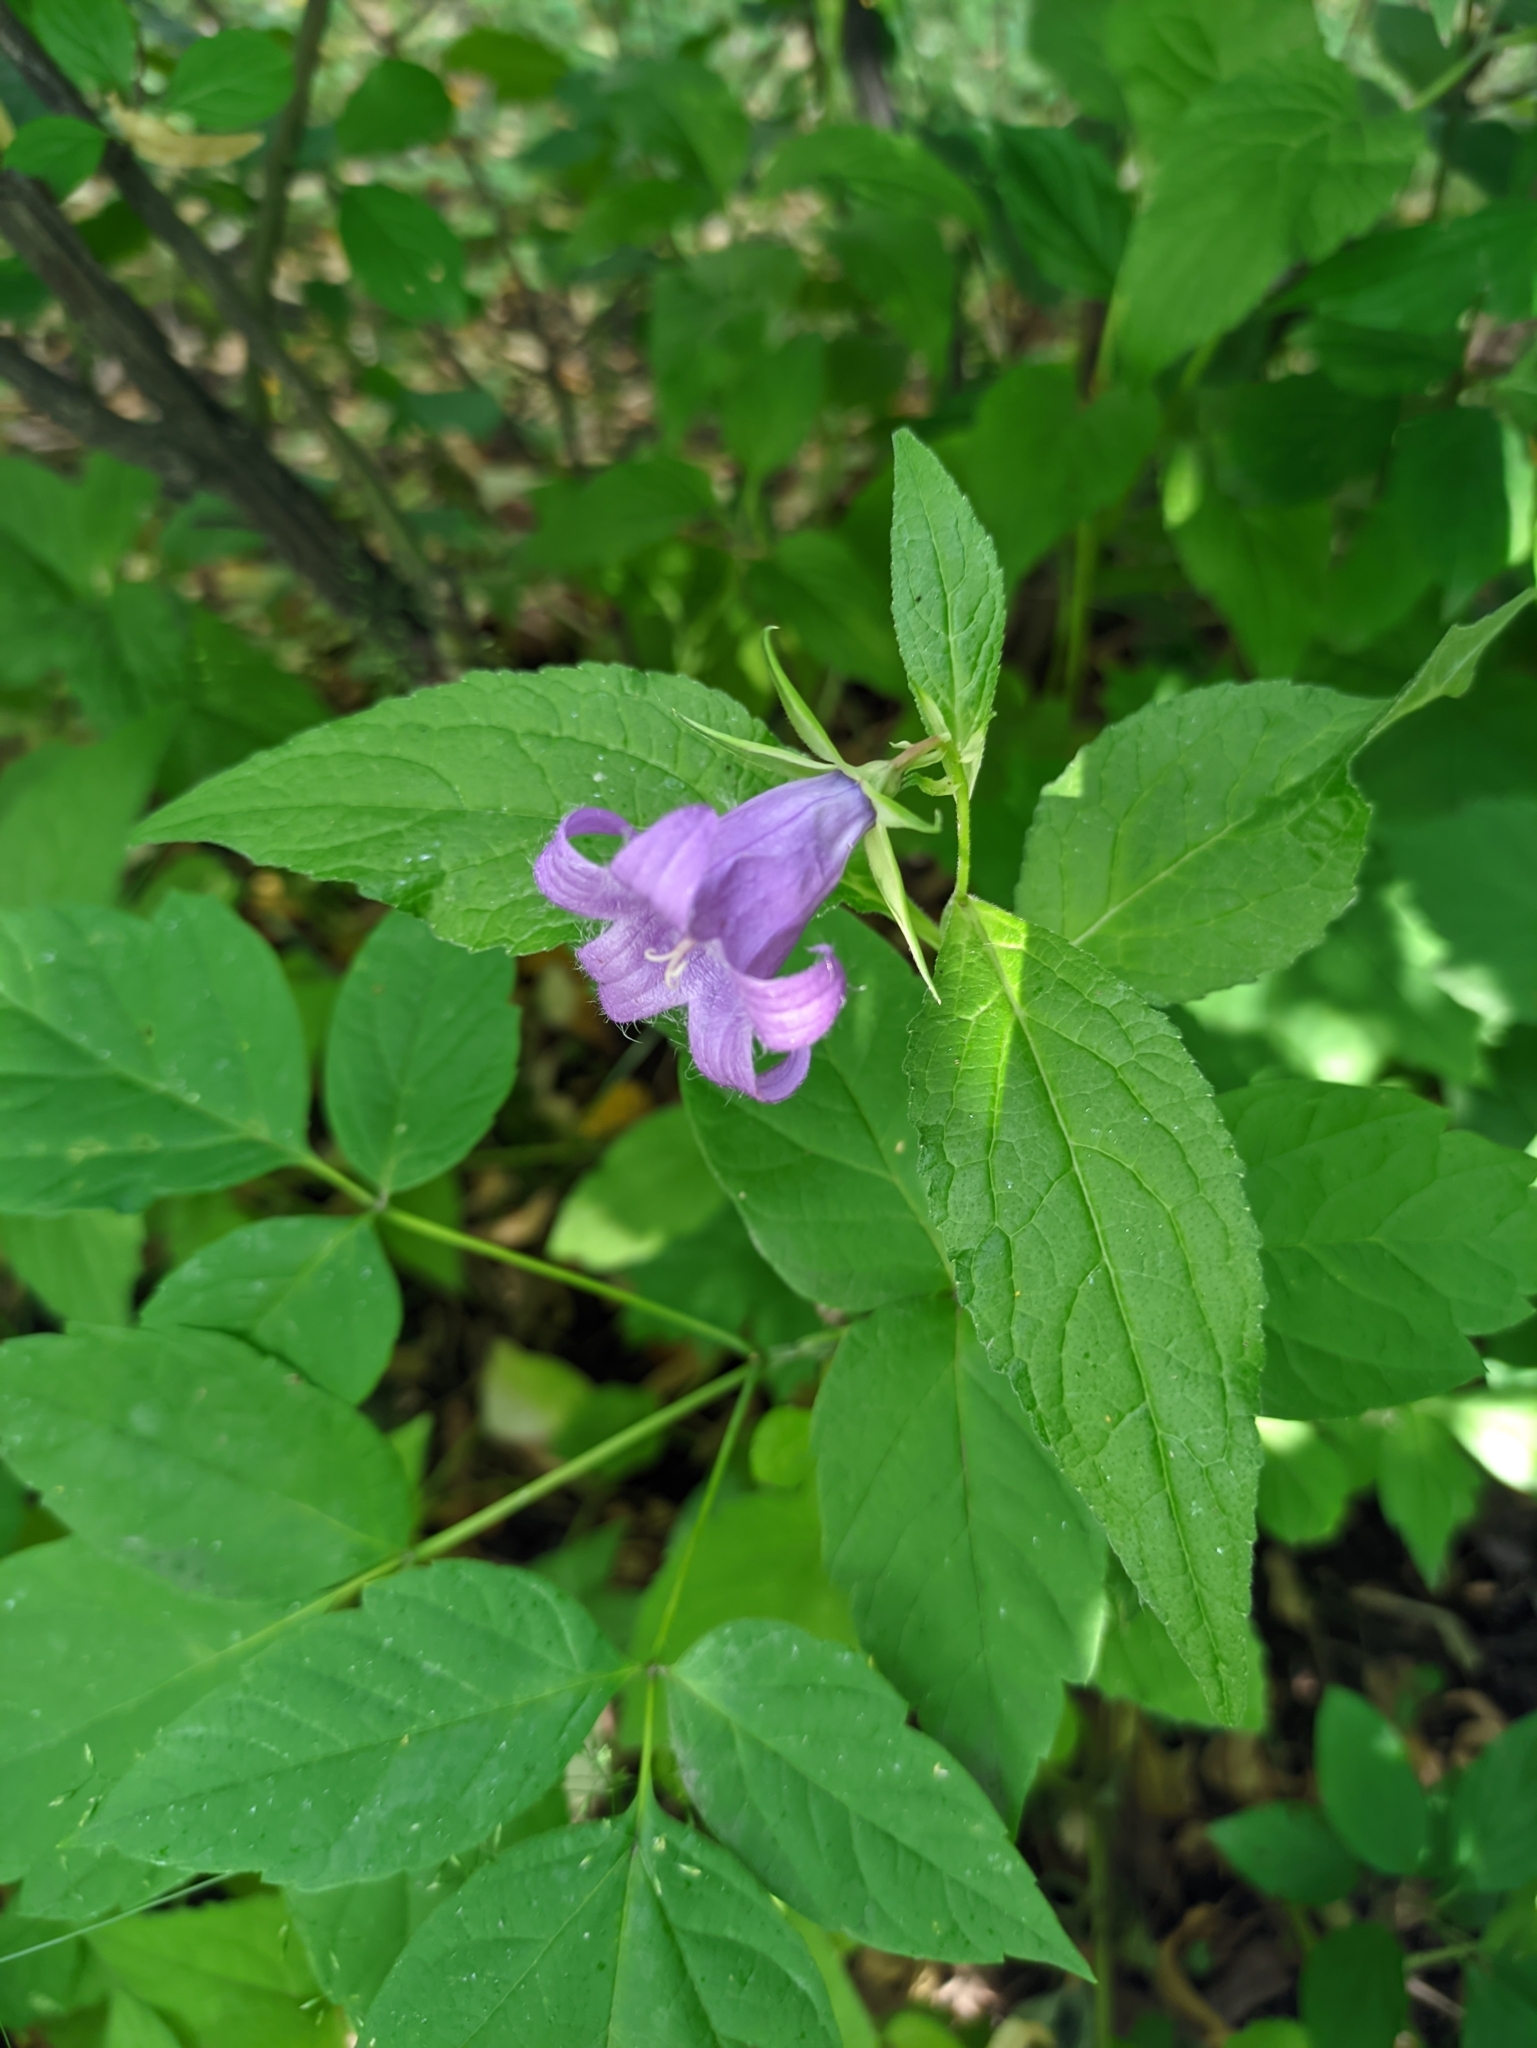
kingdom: Plantae
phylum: Tracheophyta
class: Magnoliopsida
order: Asterales
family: Campanulaceae
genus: Campanula
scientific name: Campanula latifolia
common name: Giant bellflower
